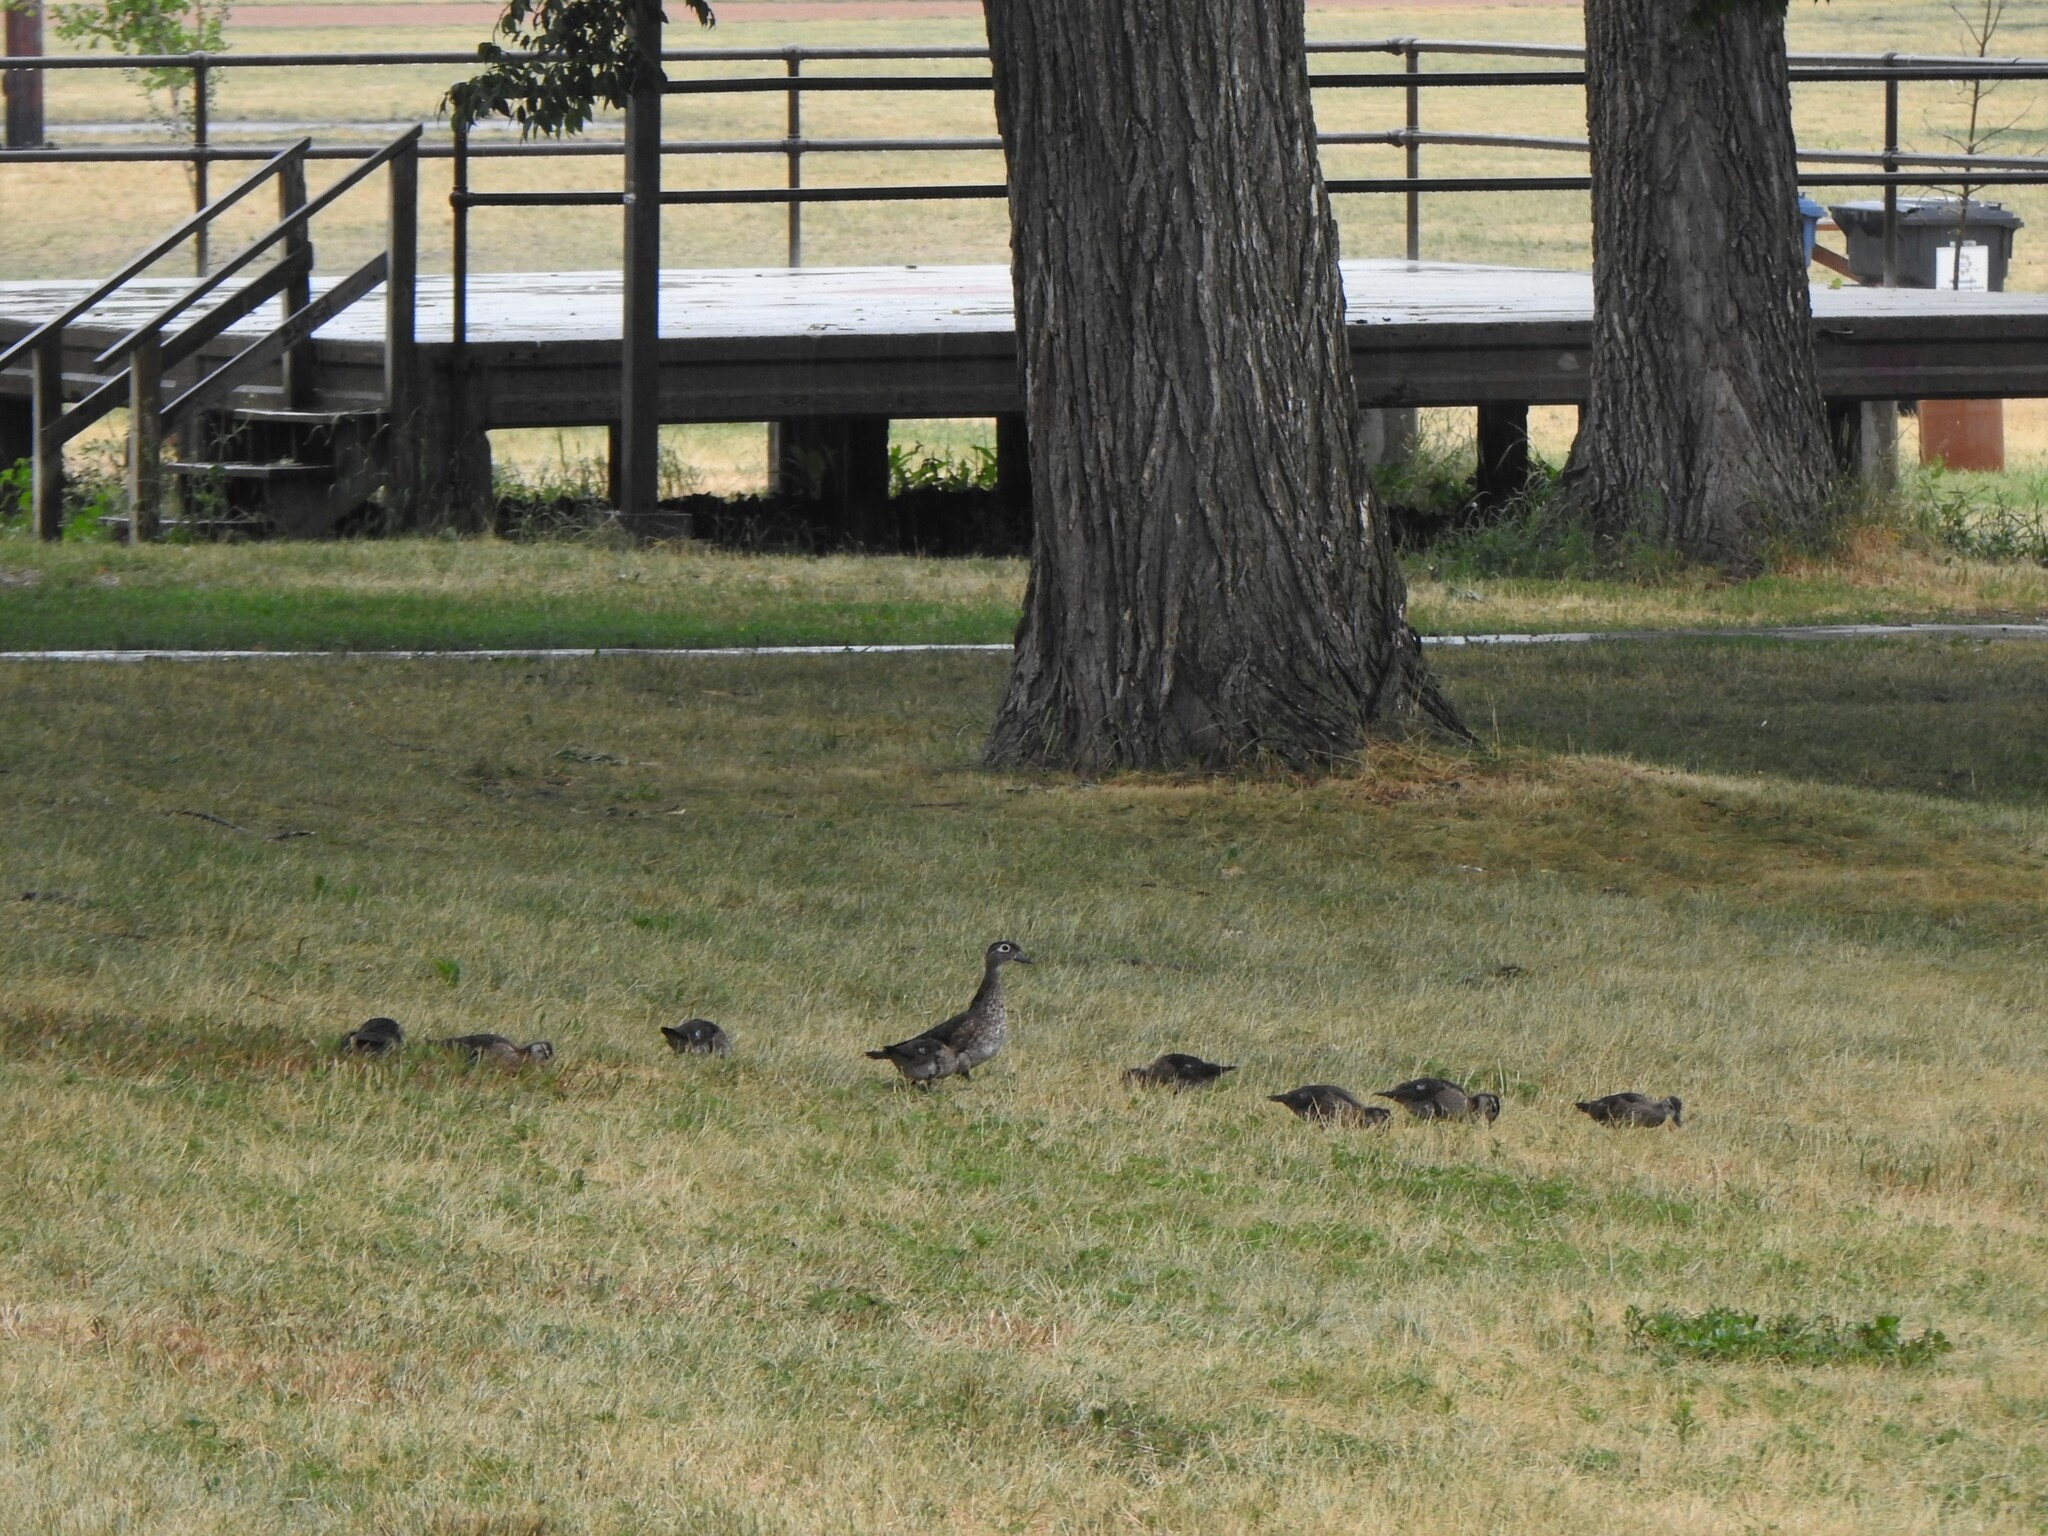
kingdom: Animalia
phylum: Chordata
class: Aves
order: Anseriformes
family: Anatidae
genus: Aix
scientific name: Aix sponsa
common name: Wood duck
